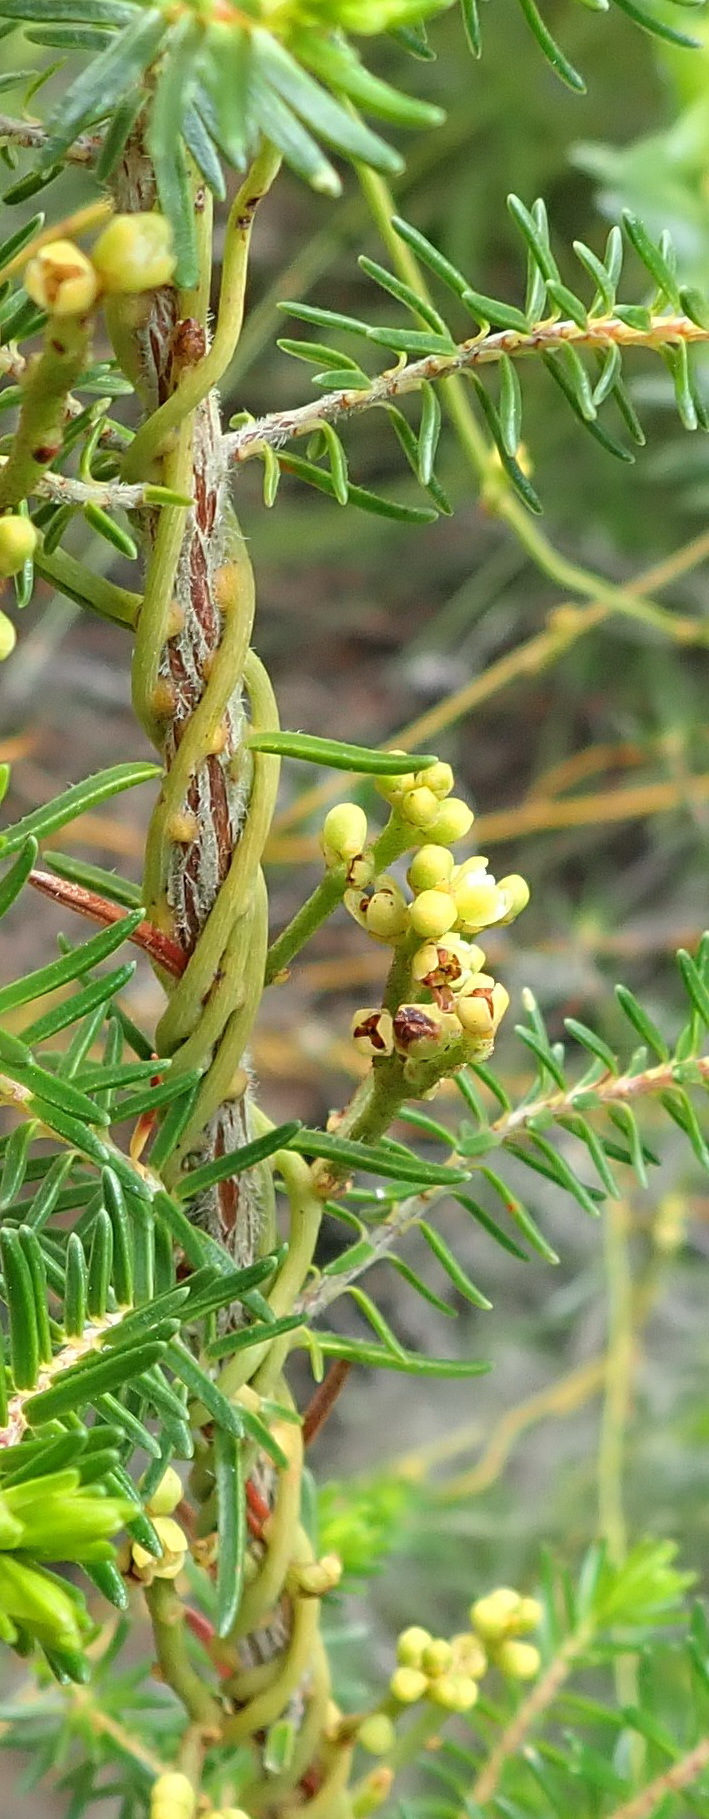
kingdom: Plantae
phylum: Tracheophyta
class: Magnoliopsida
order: Laurales
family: Lauraceae
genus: Cassytha
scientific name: Cassytha ciliolata
